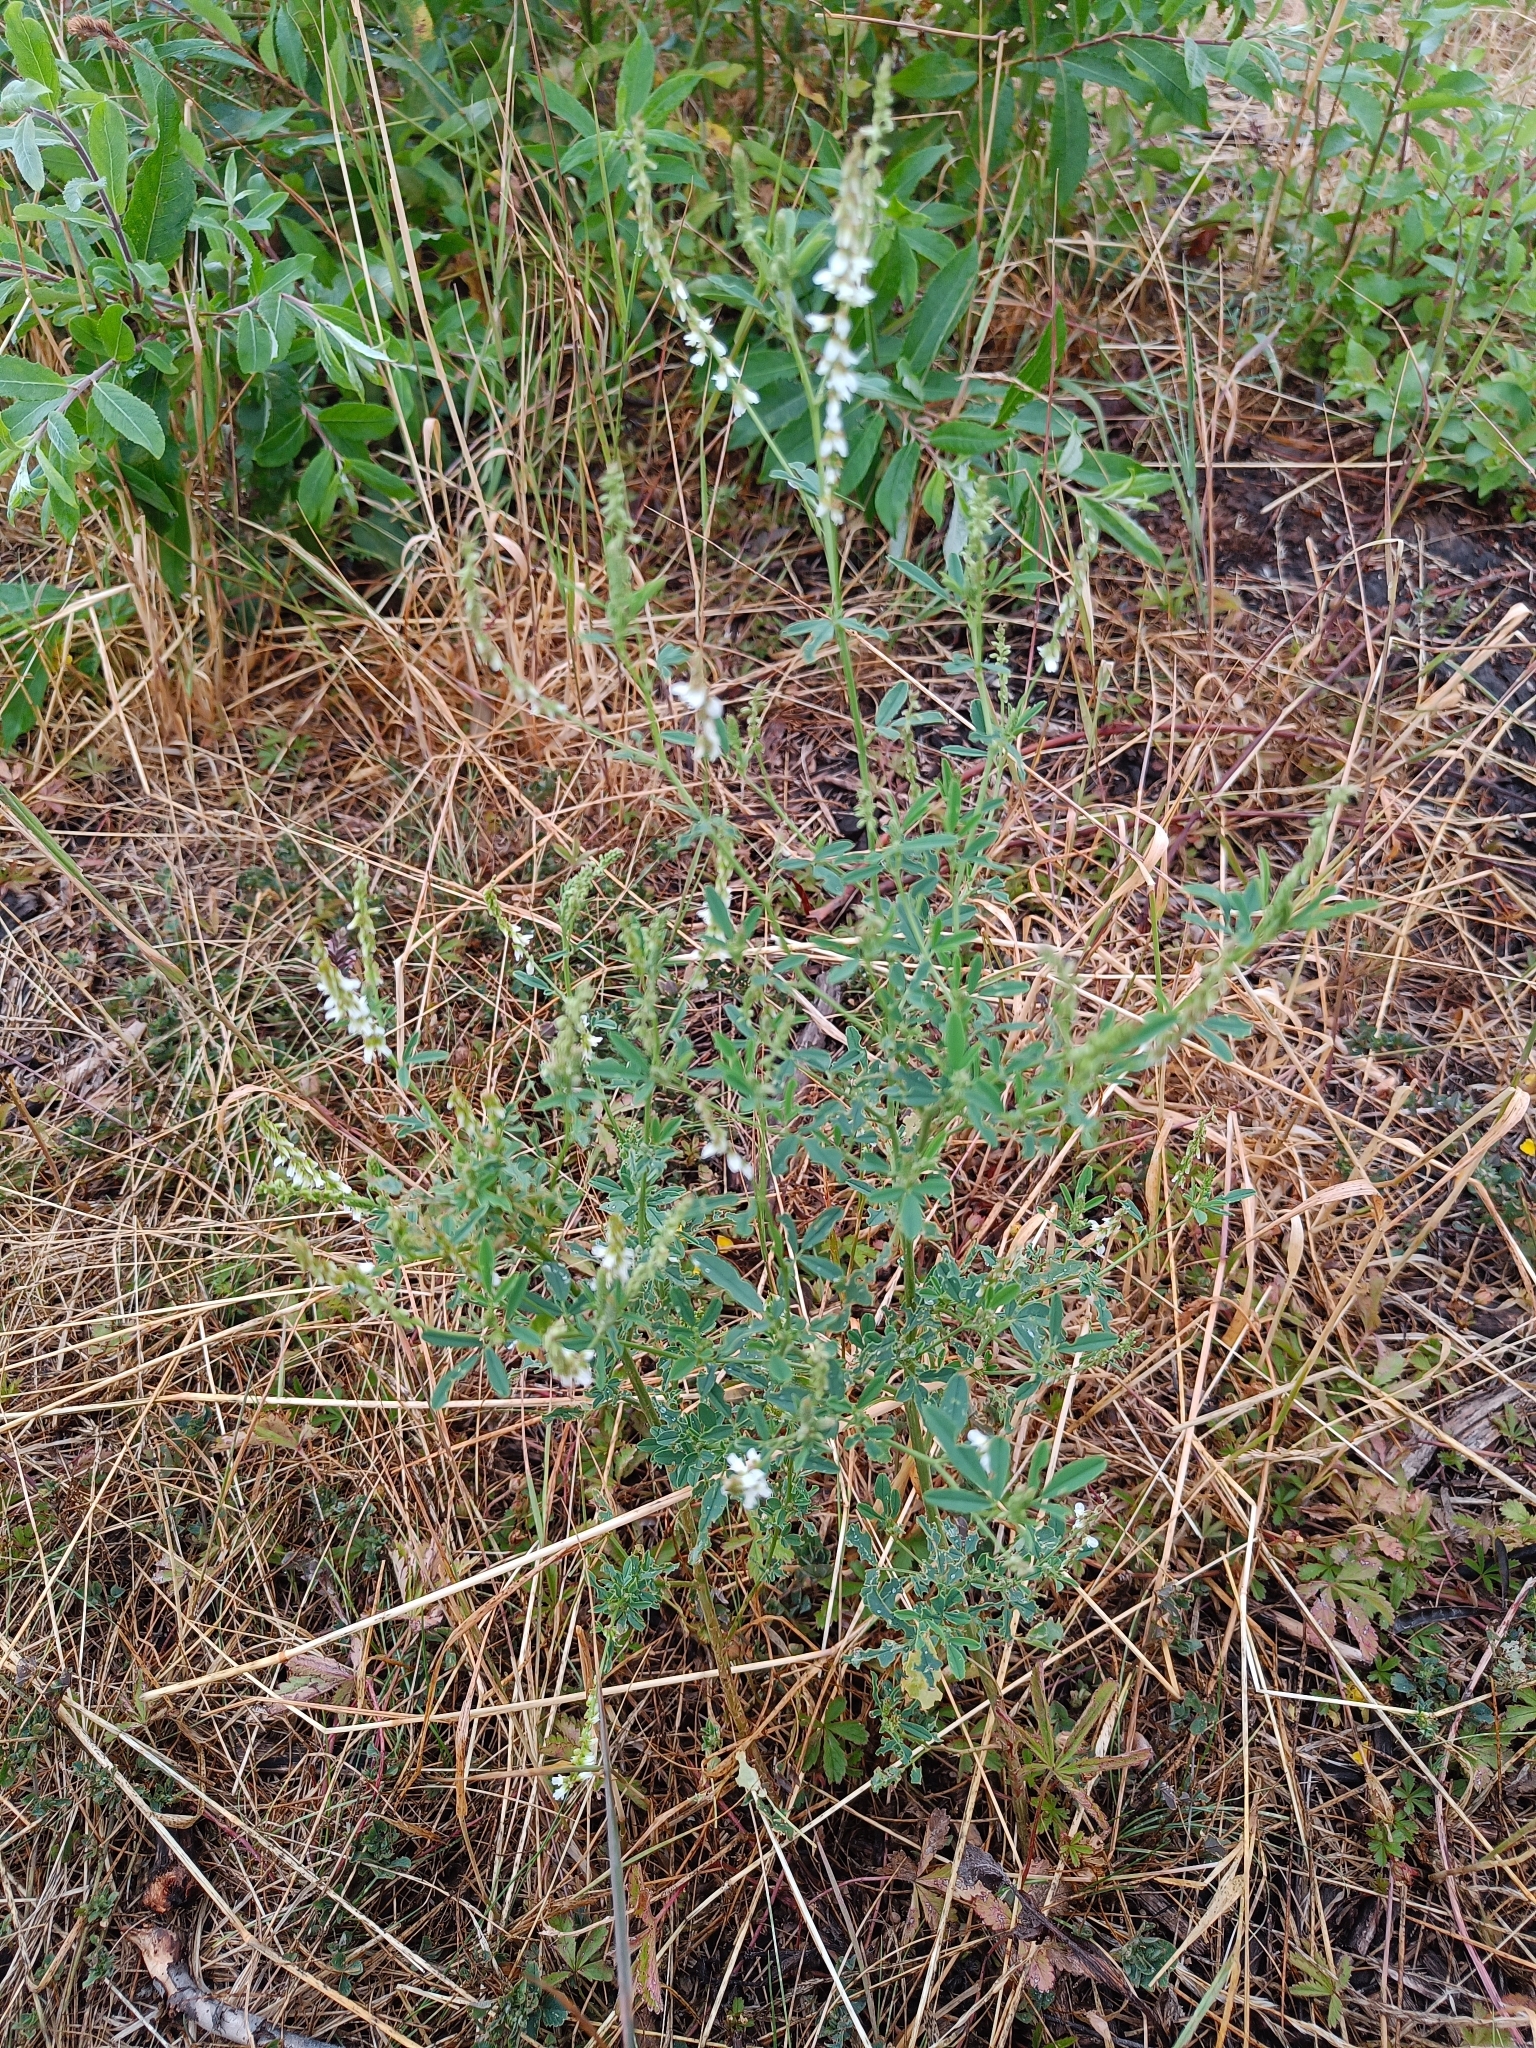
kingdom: Plantae
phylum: Tracheophyta
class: Magnoliopsida
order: Fabales
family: Fabaceae
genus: Melilotus
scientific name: Melilotus albus
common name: White melilot
